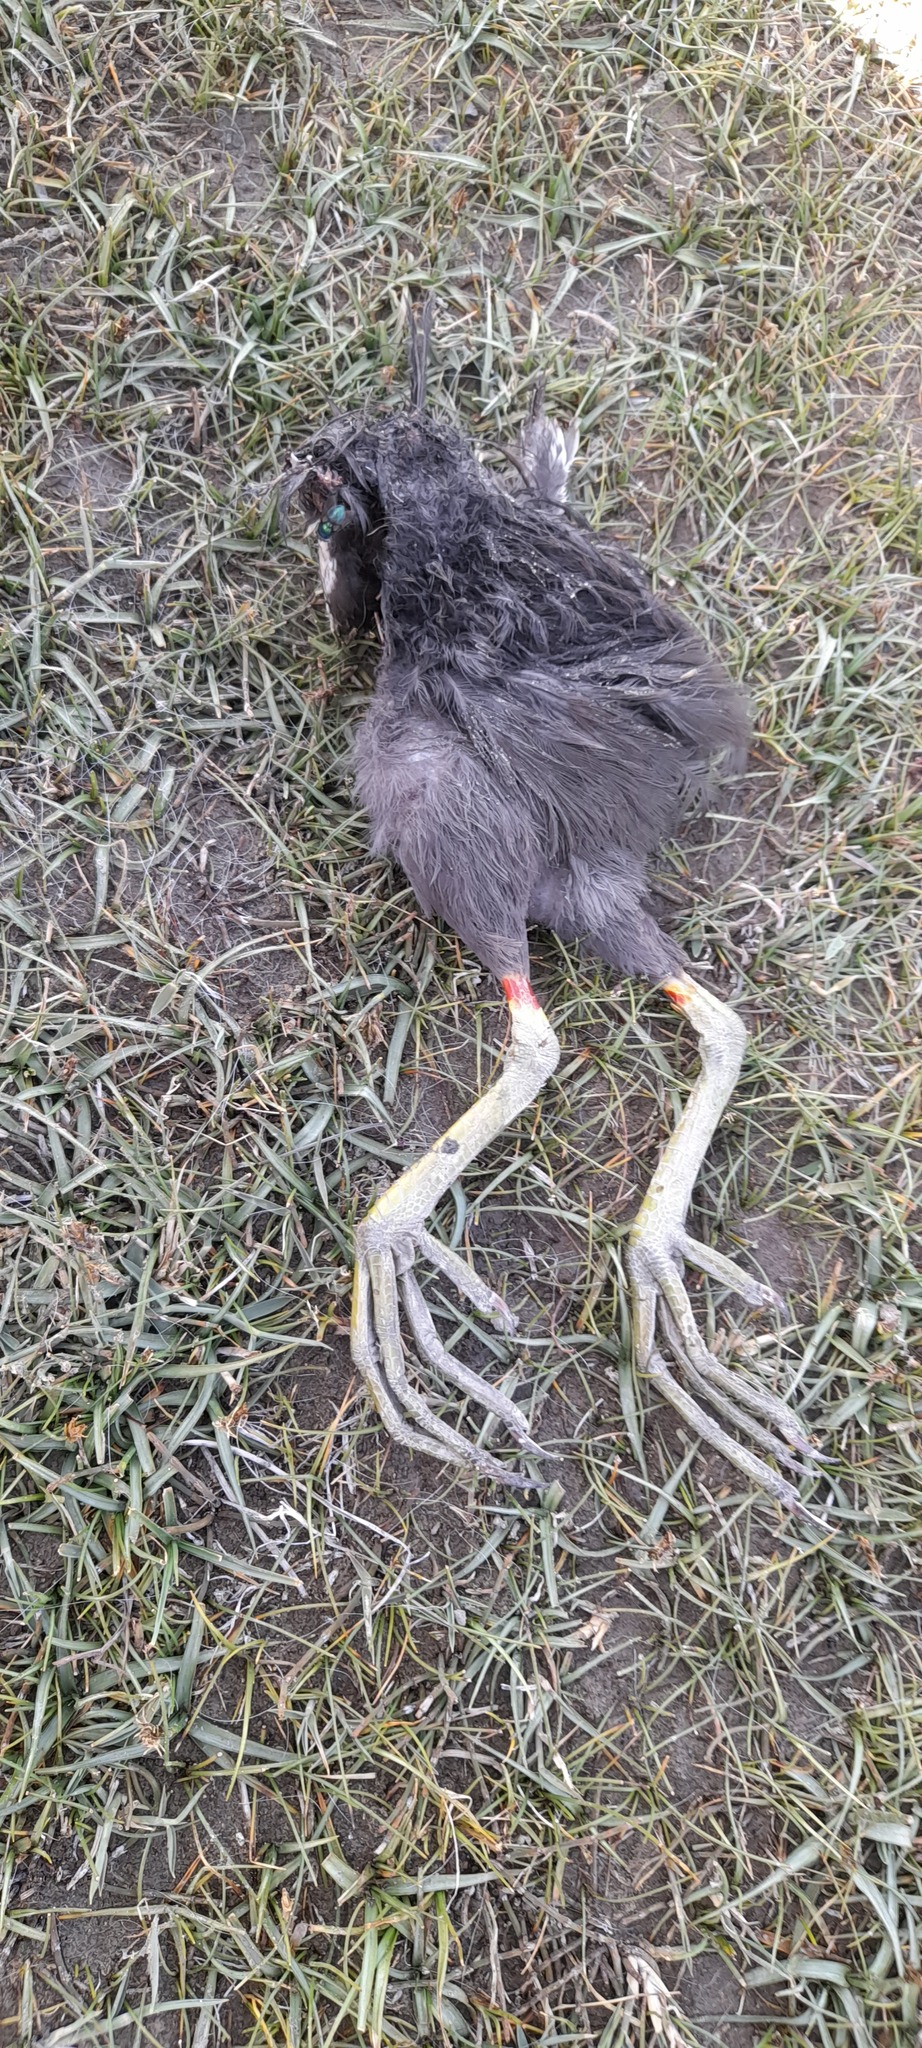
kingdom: Animalia
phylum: Chordata
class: Aves
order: Gruiformes
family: Rallidae
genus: Gallinula
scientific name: Gallinula chloropus
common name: Common moorhen
